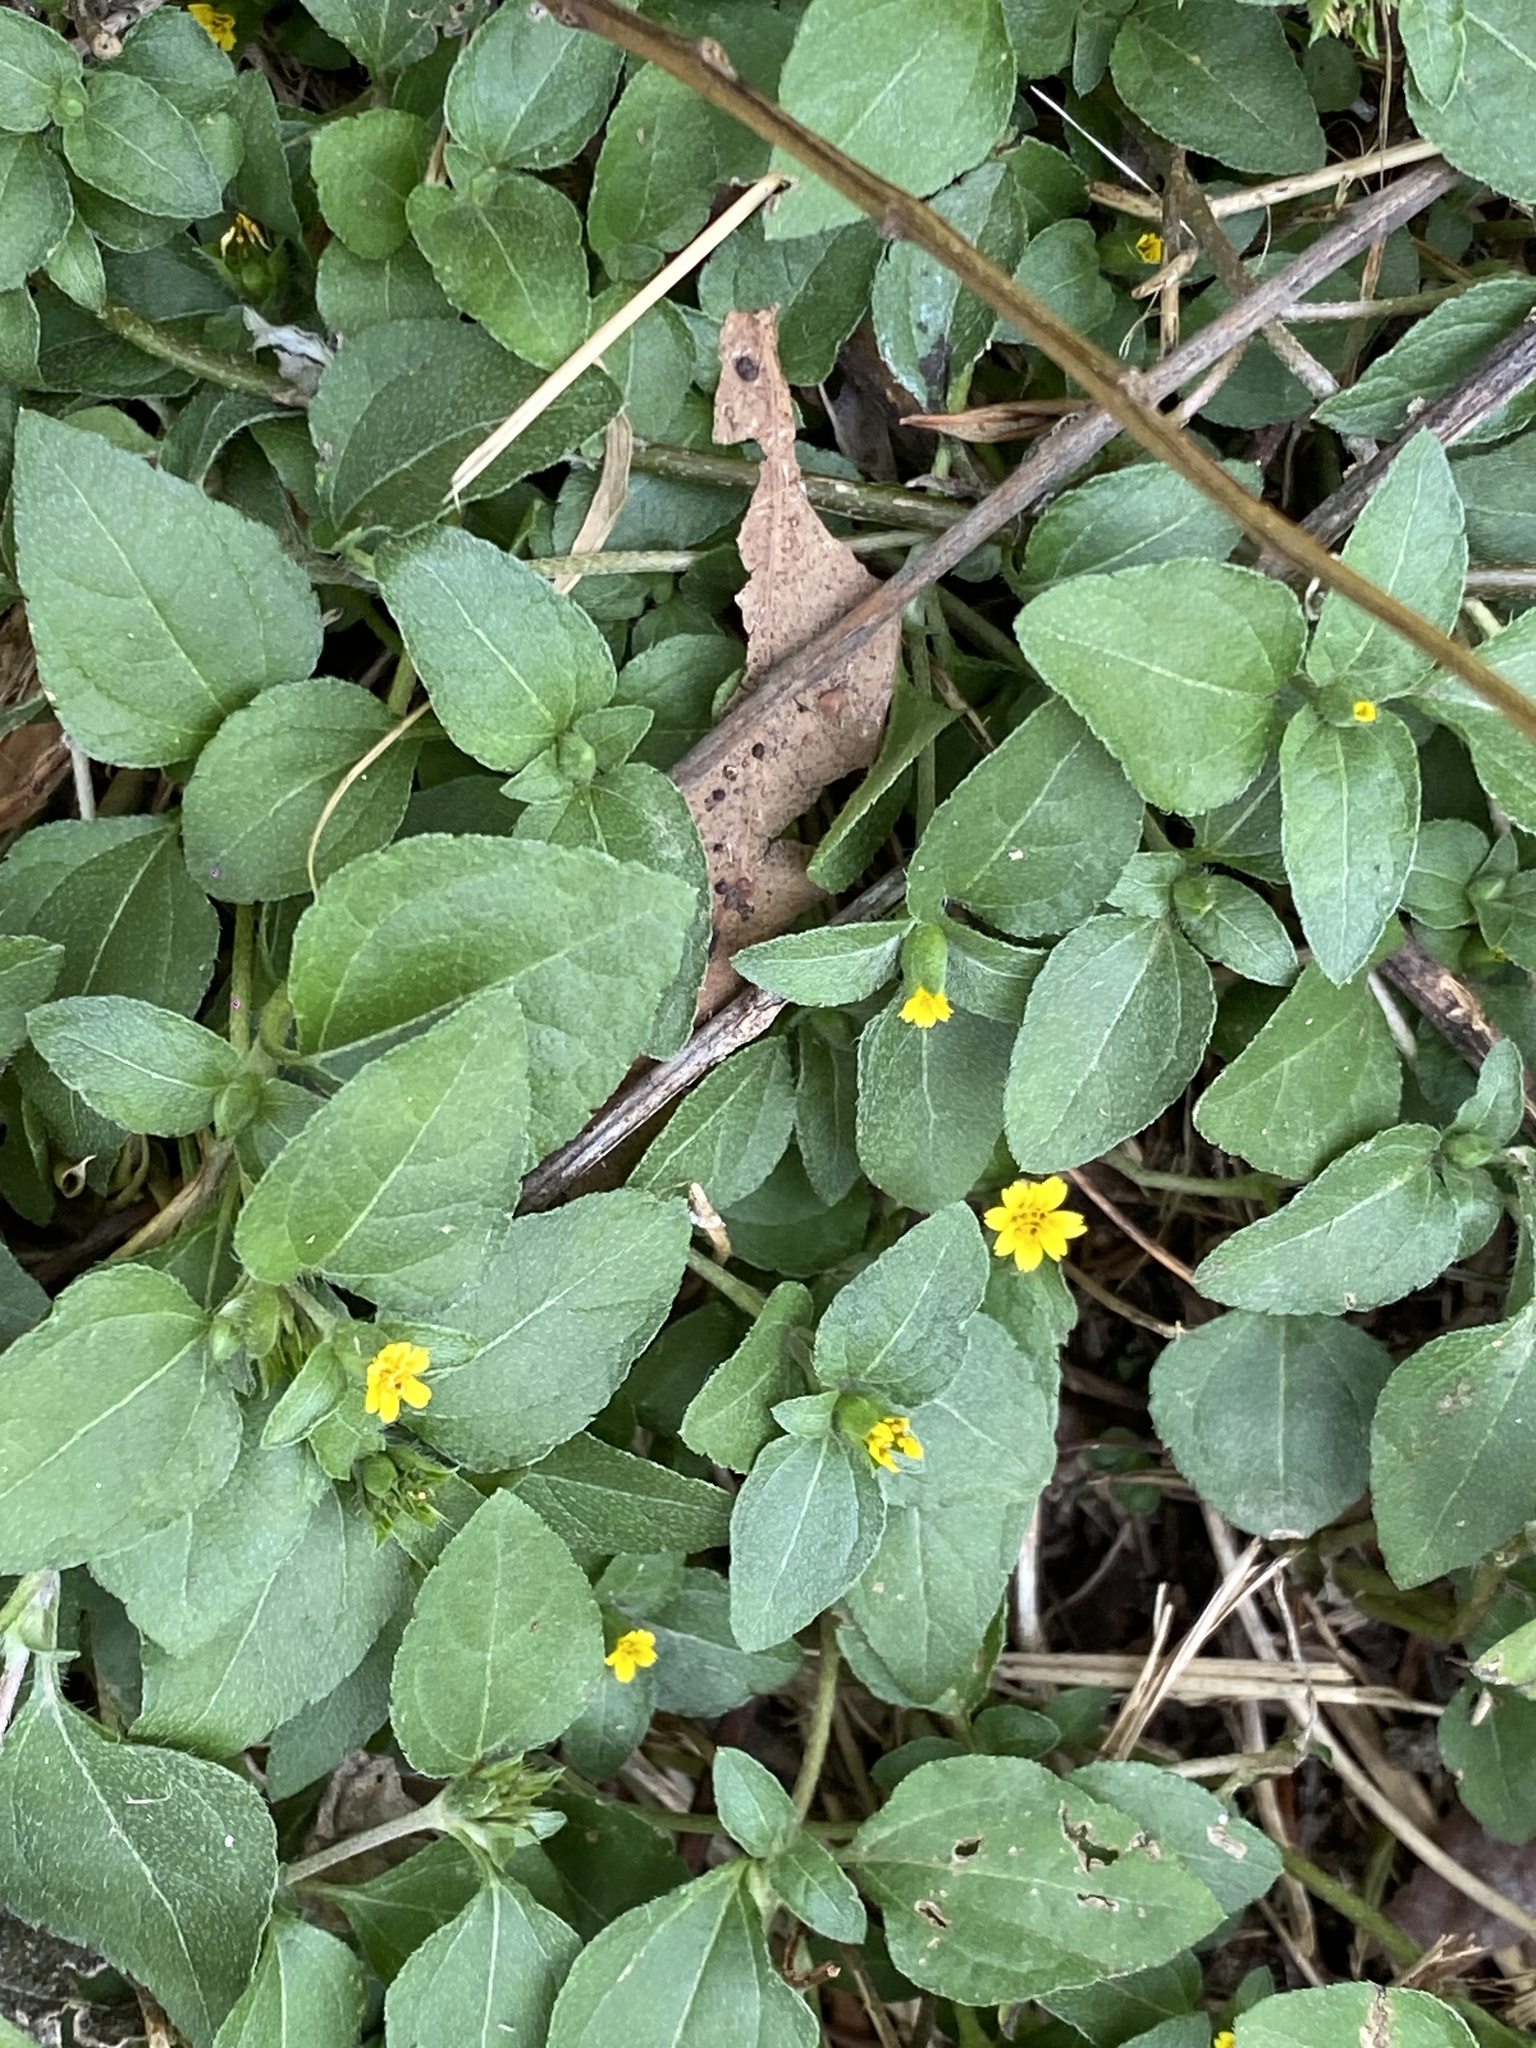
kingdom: Plantae
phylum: Tracheophyta
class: Magnoliopsida
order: Asterales
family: Asteraceae
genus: Calyptocarpus
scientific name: Calyptocarpus vialis
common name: Straggler daisy
